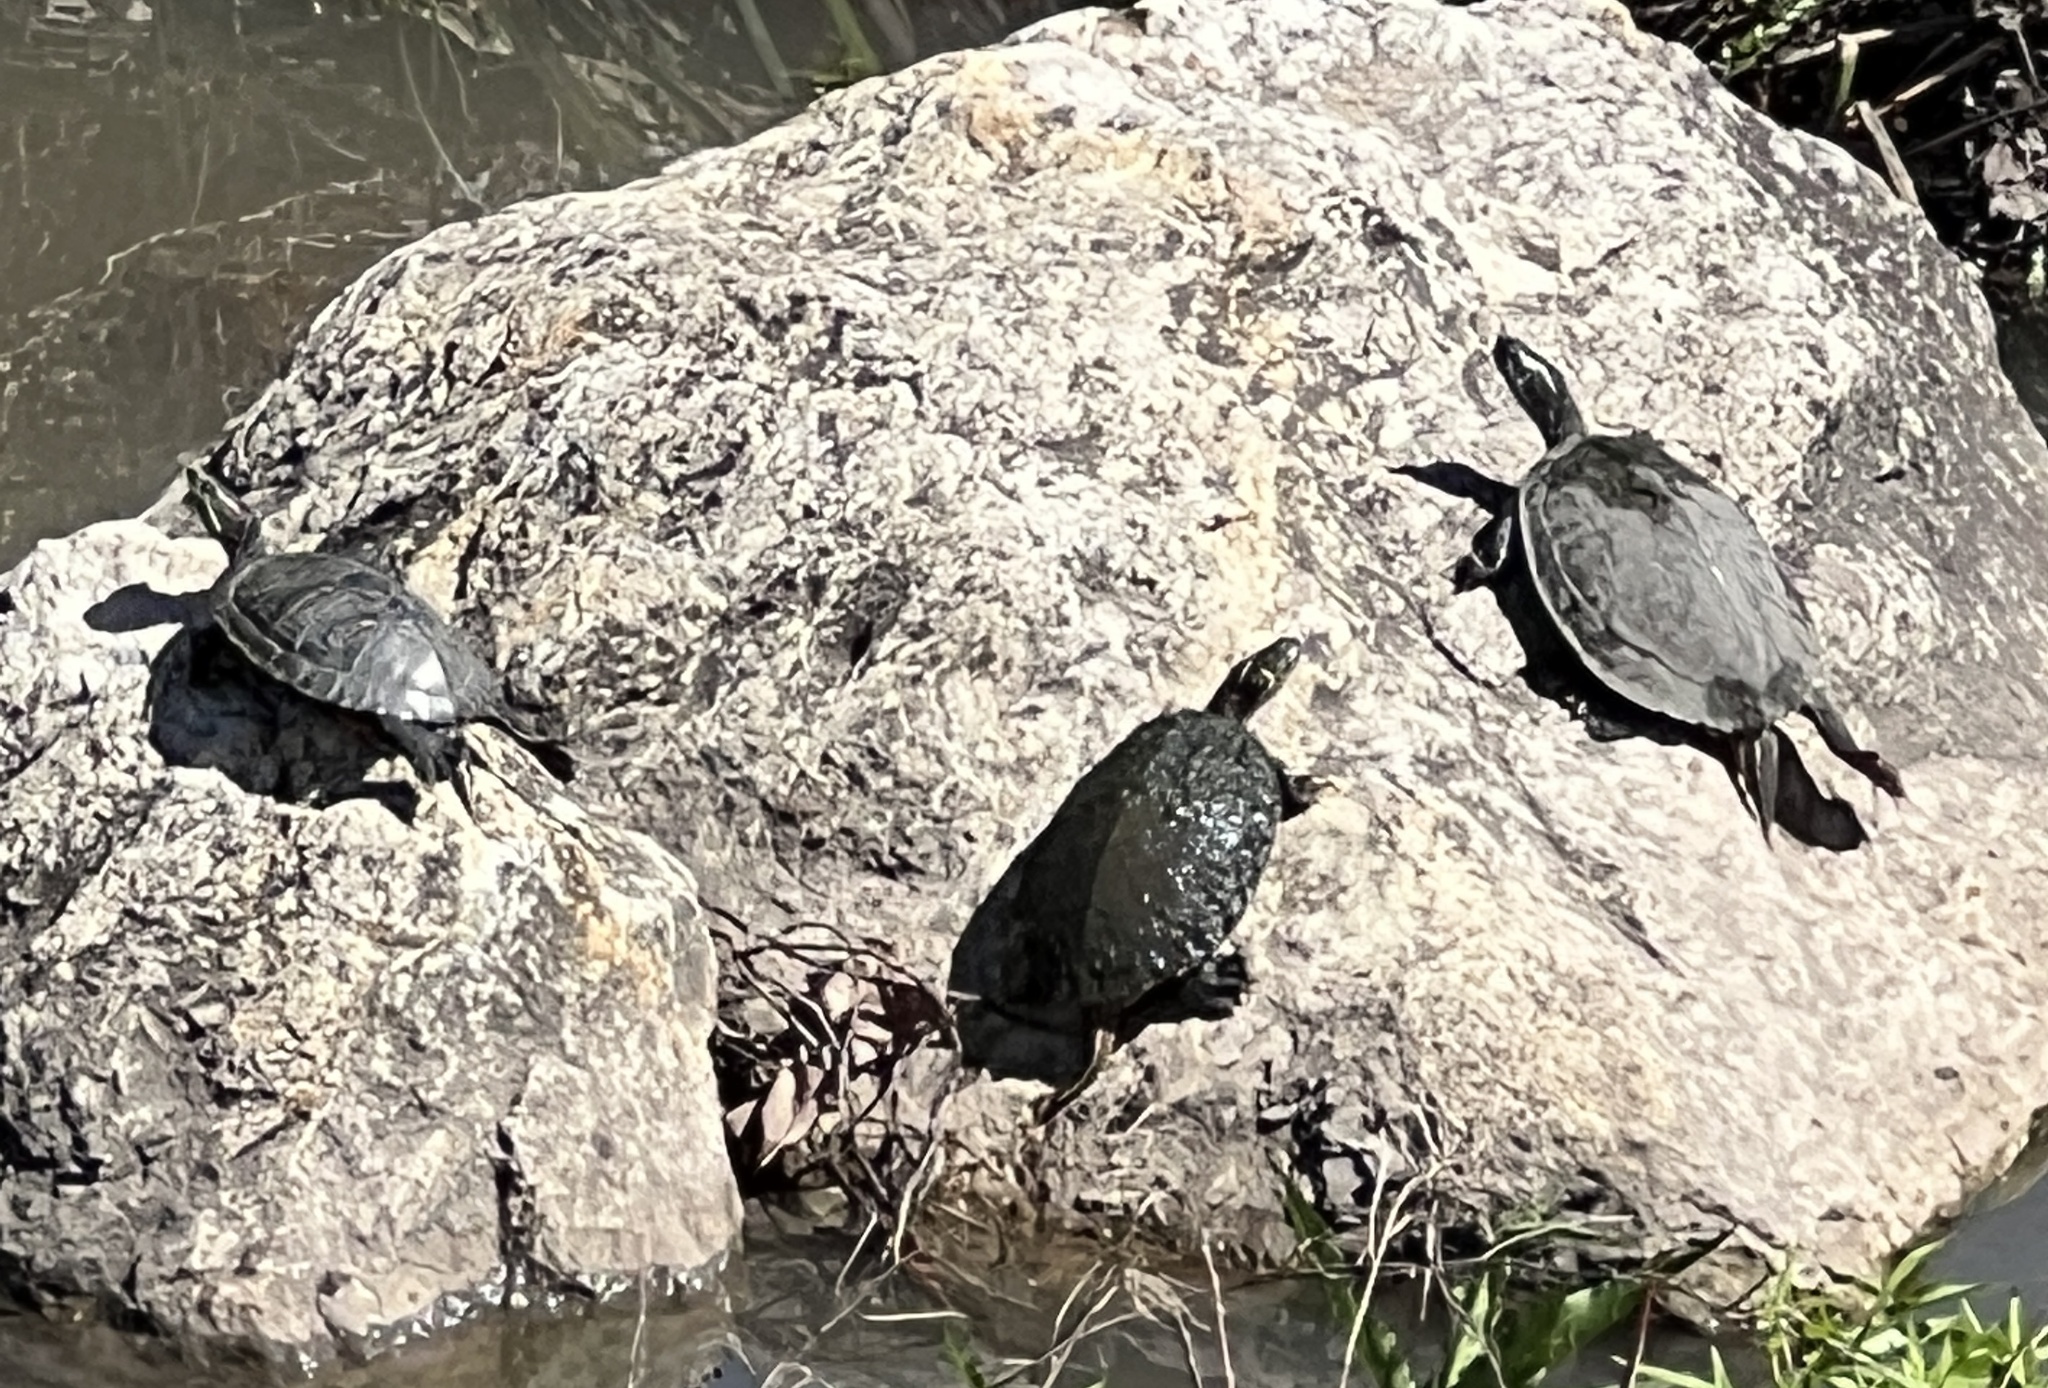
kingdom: Animalia
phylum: Chordata
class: Testudines
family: Emydidae
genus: Trachemys
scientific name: Trachemys scripta
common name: Slider
